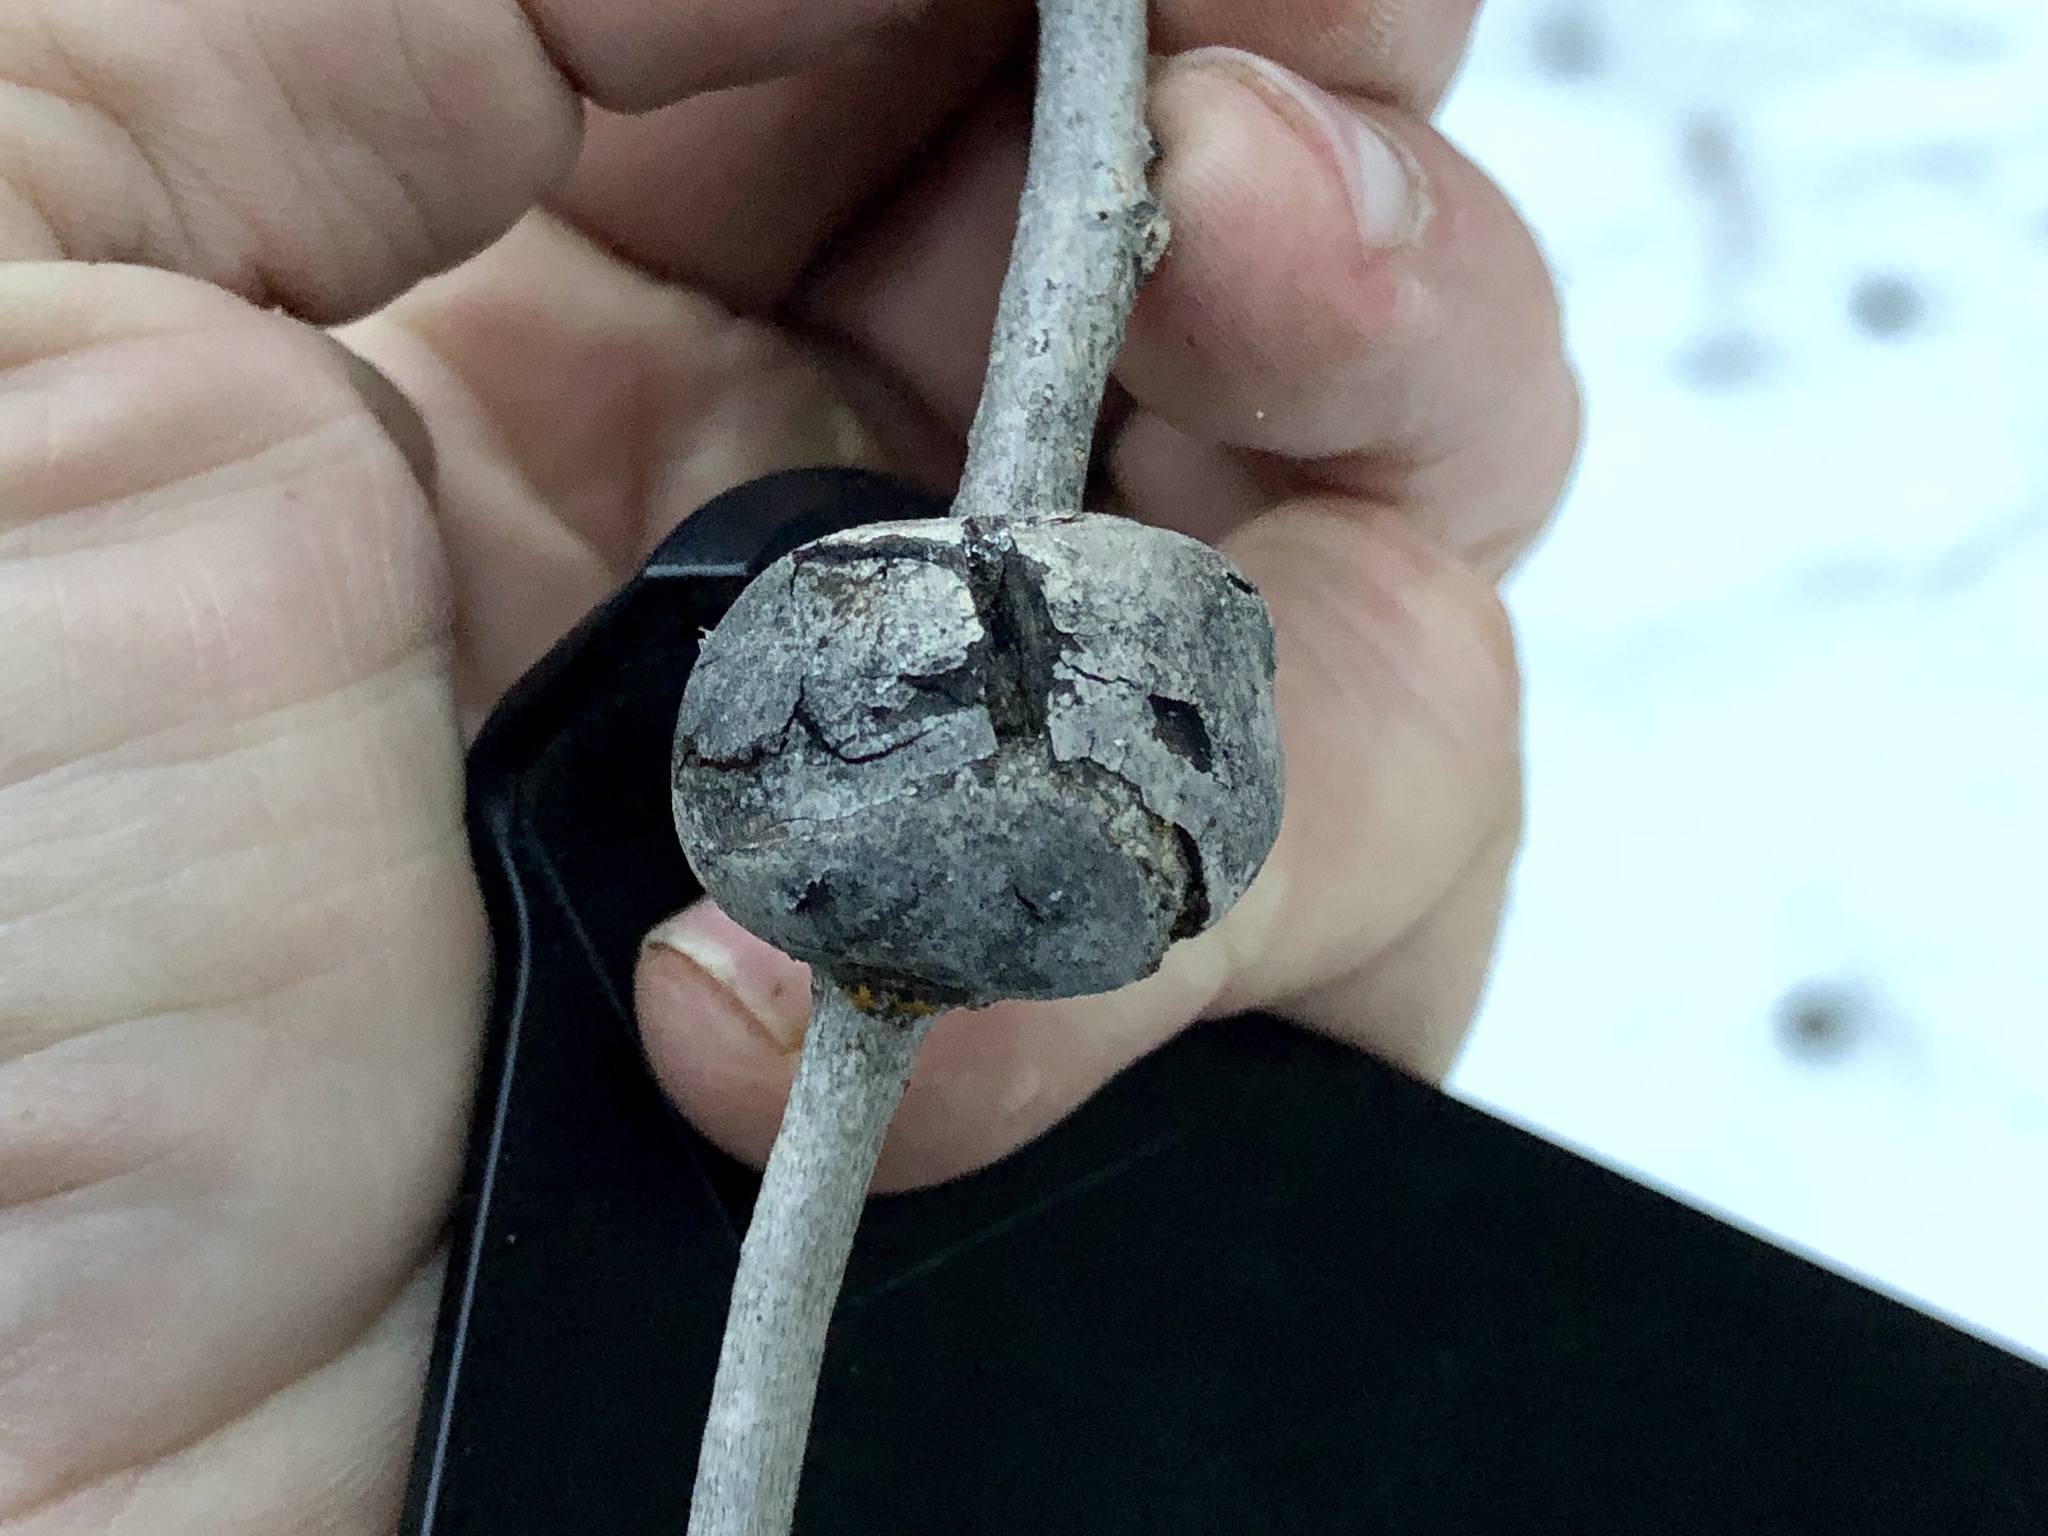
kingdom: Animalia
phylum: Arthropoda
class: Insecta
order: Diptera
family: Agromyzidae
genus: Euhexomyza
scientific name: Euhexomyza schineri
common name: Poplar twiggall fly
